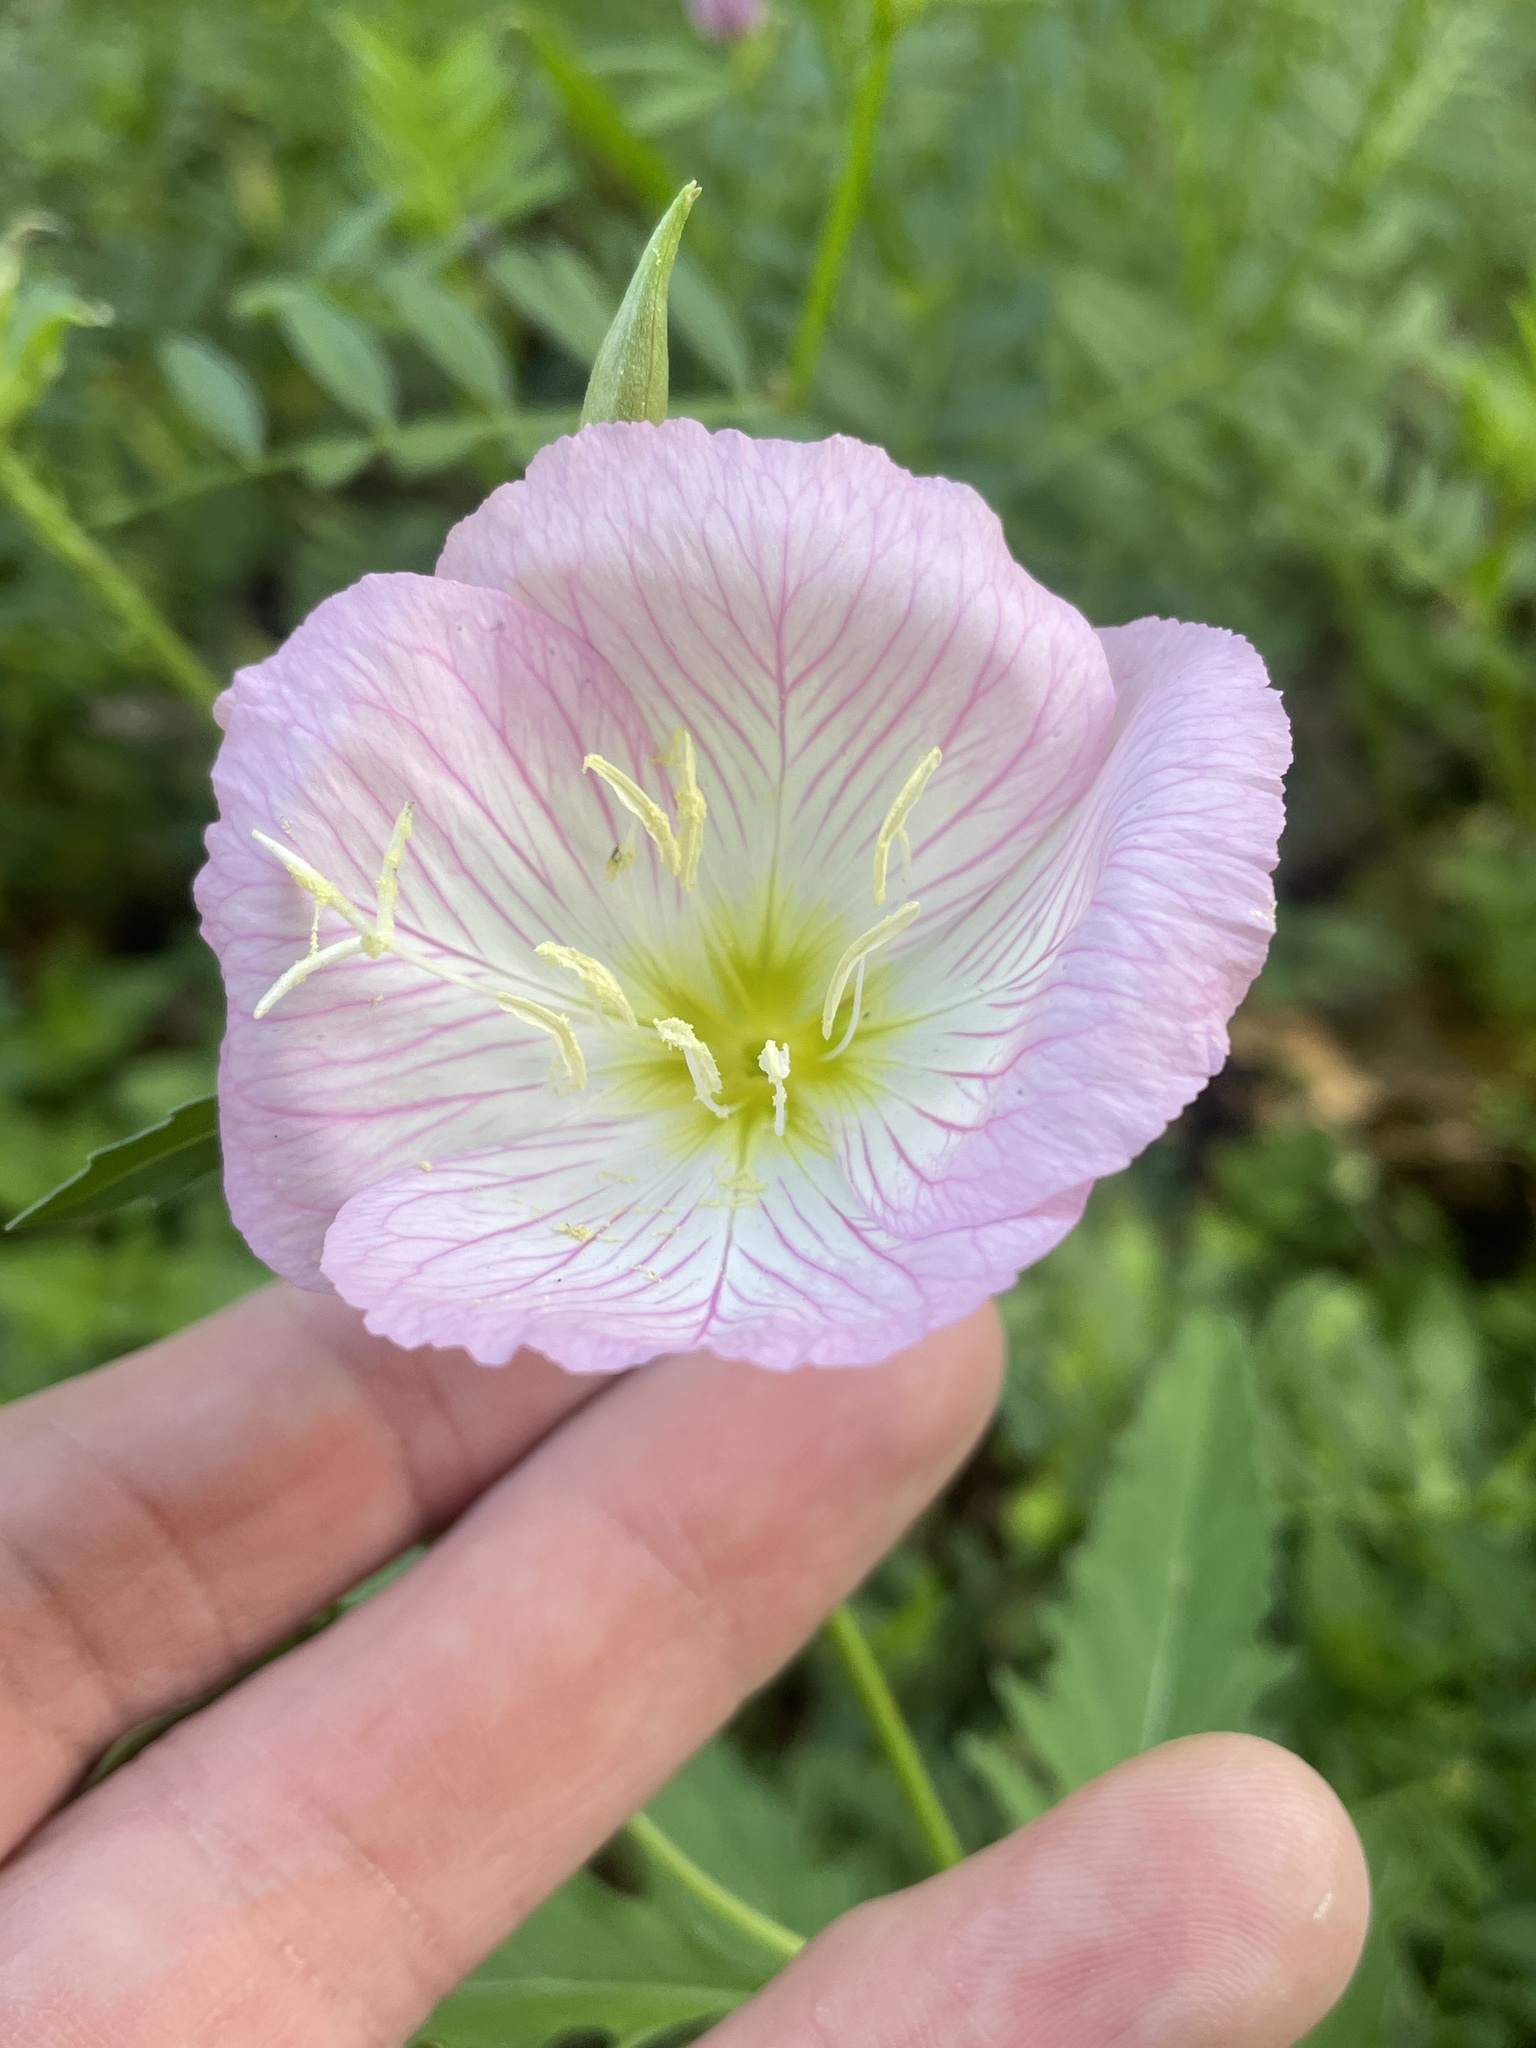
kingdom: Plantae
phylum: Tracheophyta
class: Magnoliopsida
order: Myrtales
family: Onagraceae
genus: Oenothera
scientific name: Oenothera speciosa
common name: White evening-primrose
